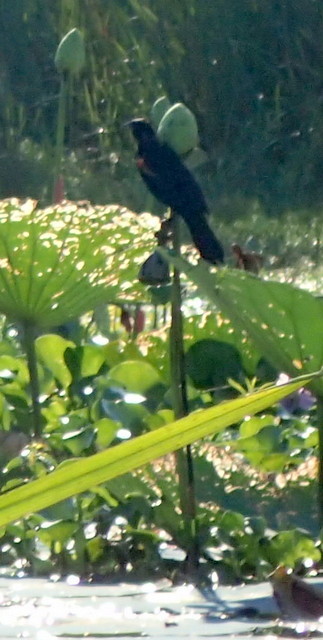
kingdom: Animalia
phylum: Chordata
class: Aves
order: Passeriformes
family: Icteridae
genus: Agelaius
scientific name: Agelaius phoeniceus
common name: Red-winged blackbird
